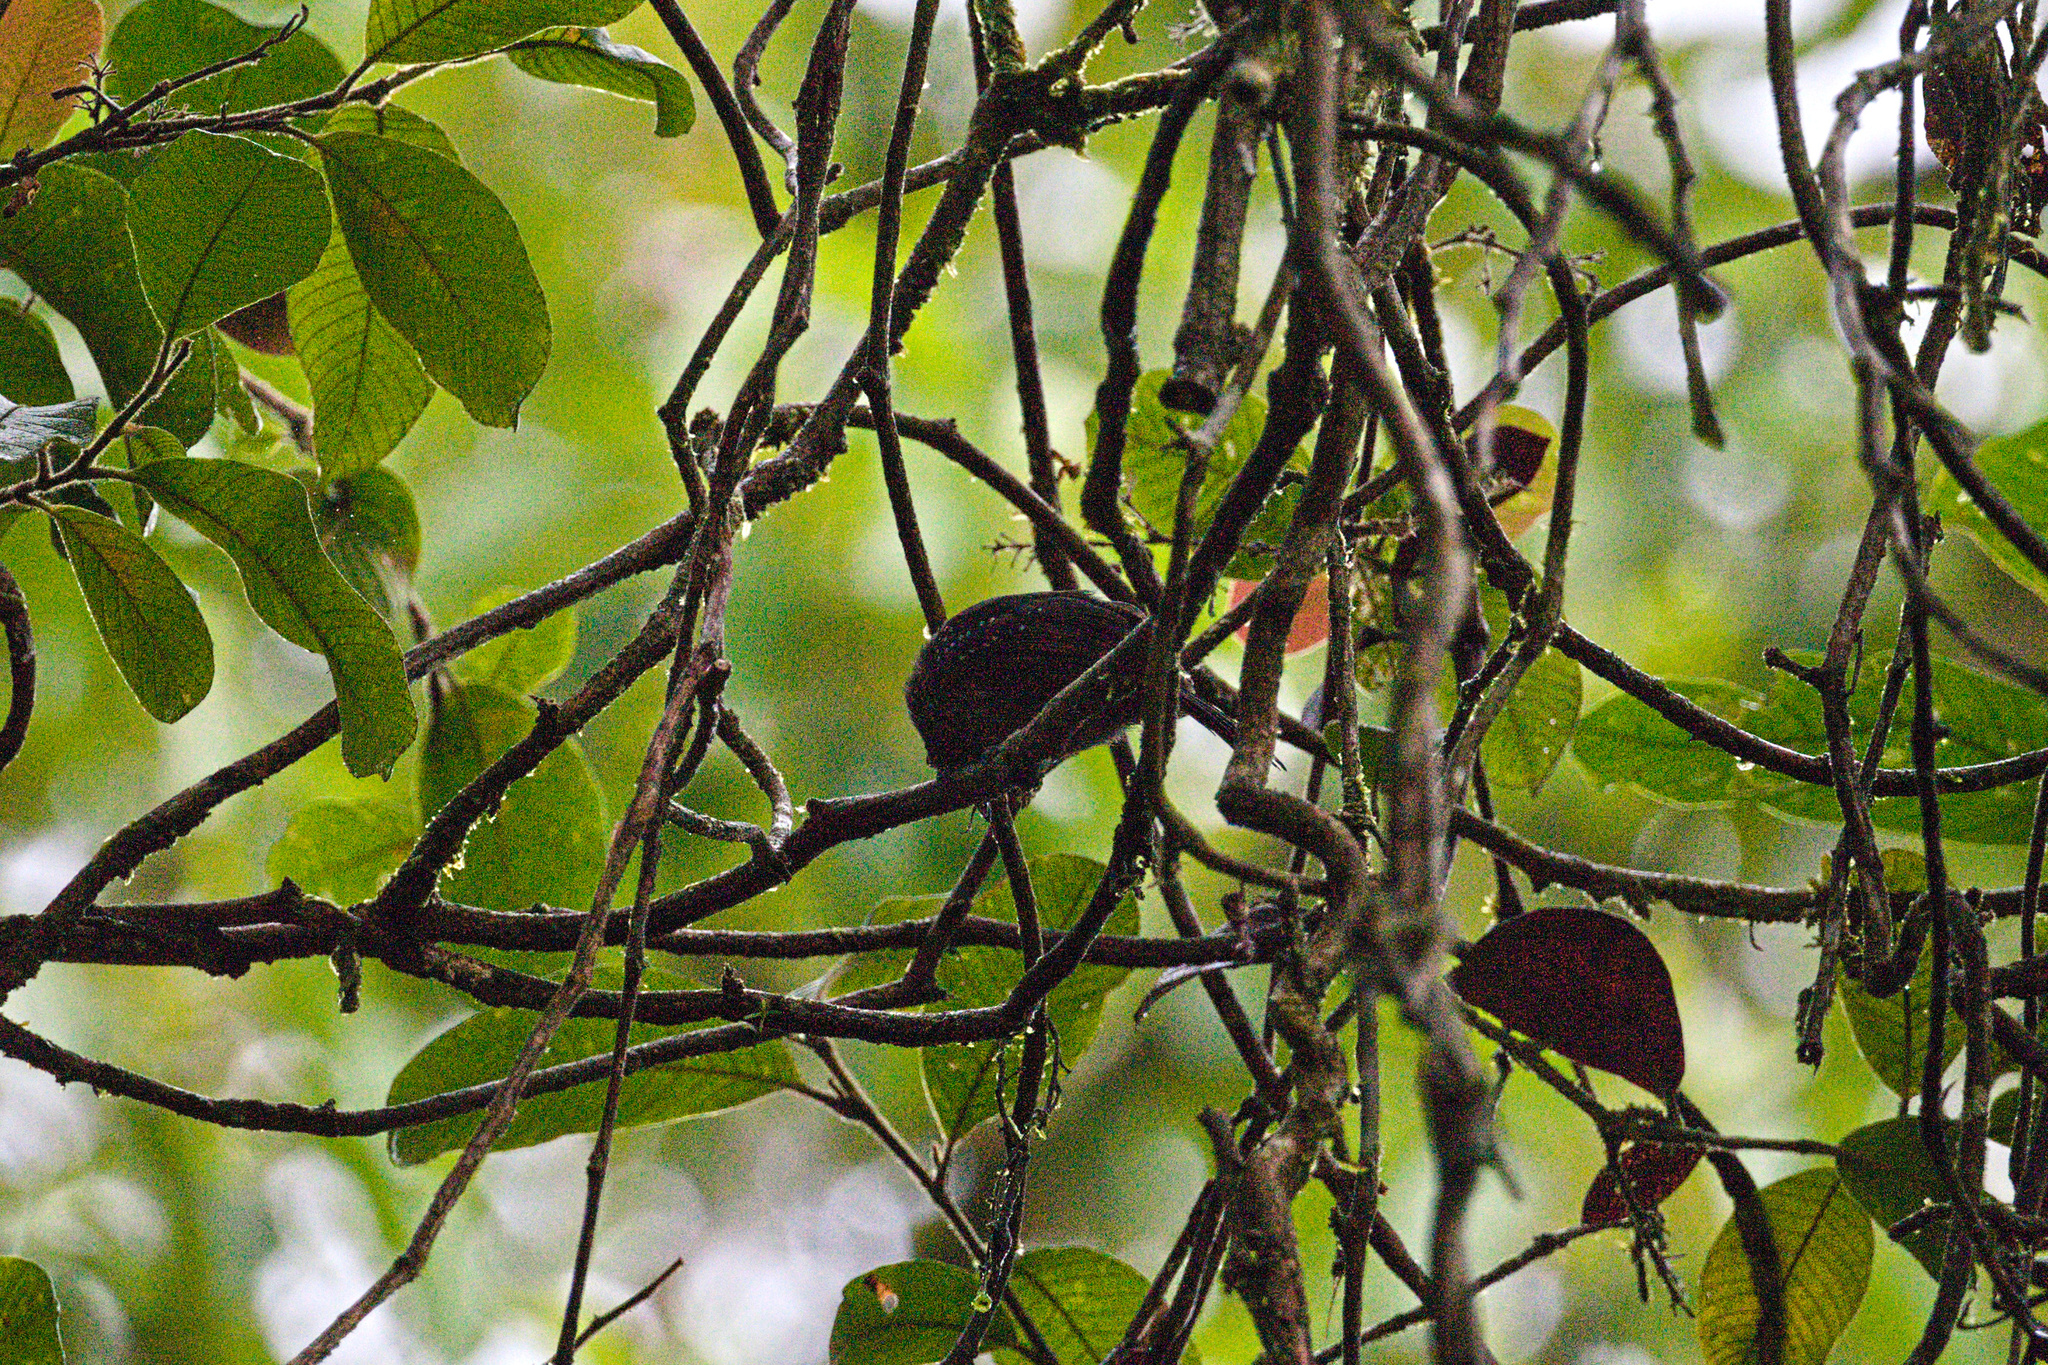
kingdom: Animalia
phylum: Chordata
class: Aves
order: Passeriformes
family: Thamnophilidae
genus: Thamnophilus
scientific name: Thamnophilus bridgesi
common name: Black-hooded antshrike
